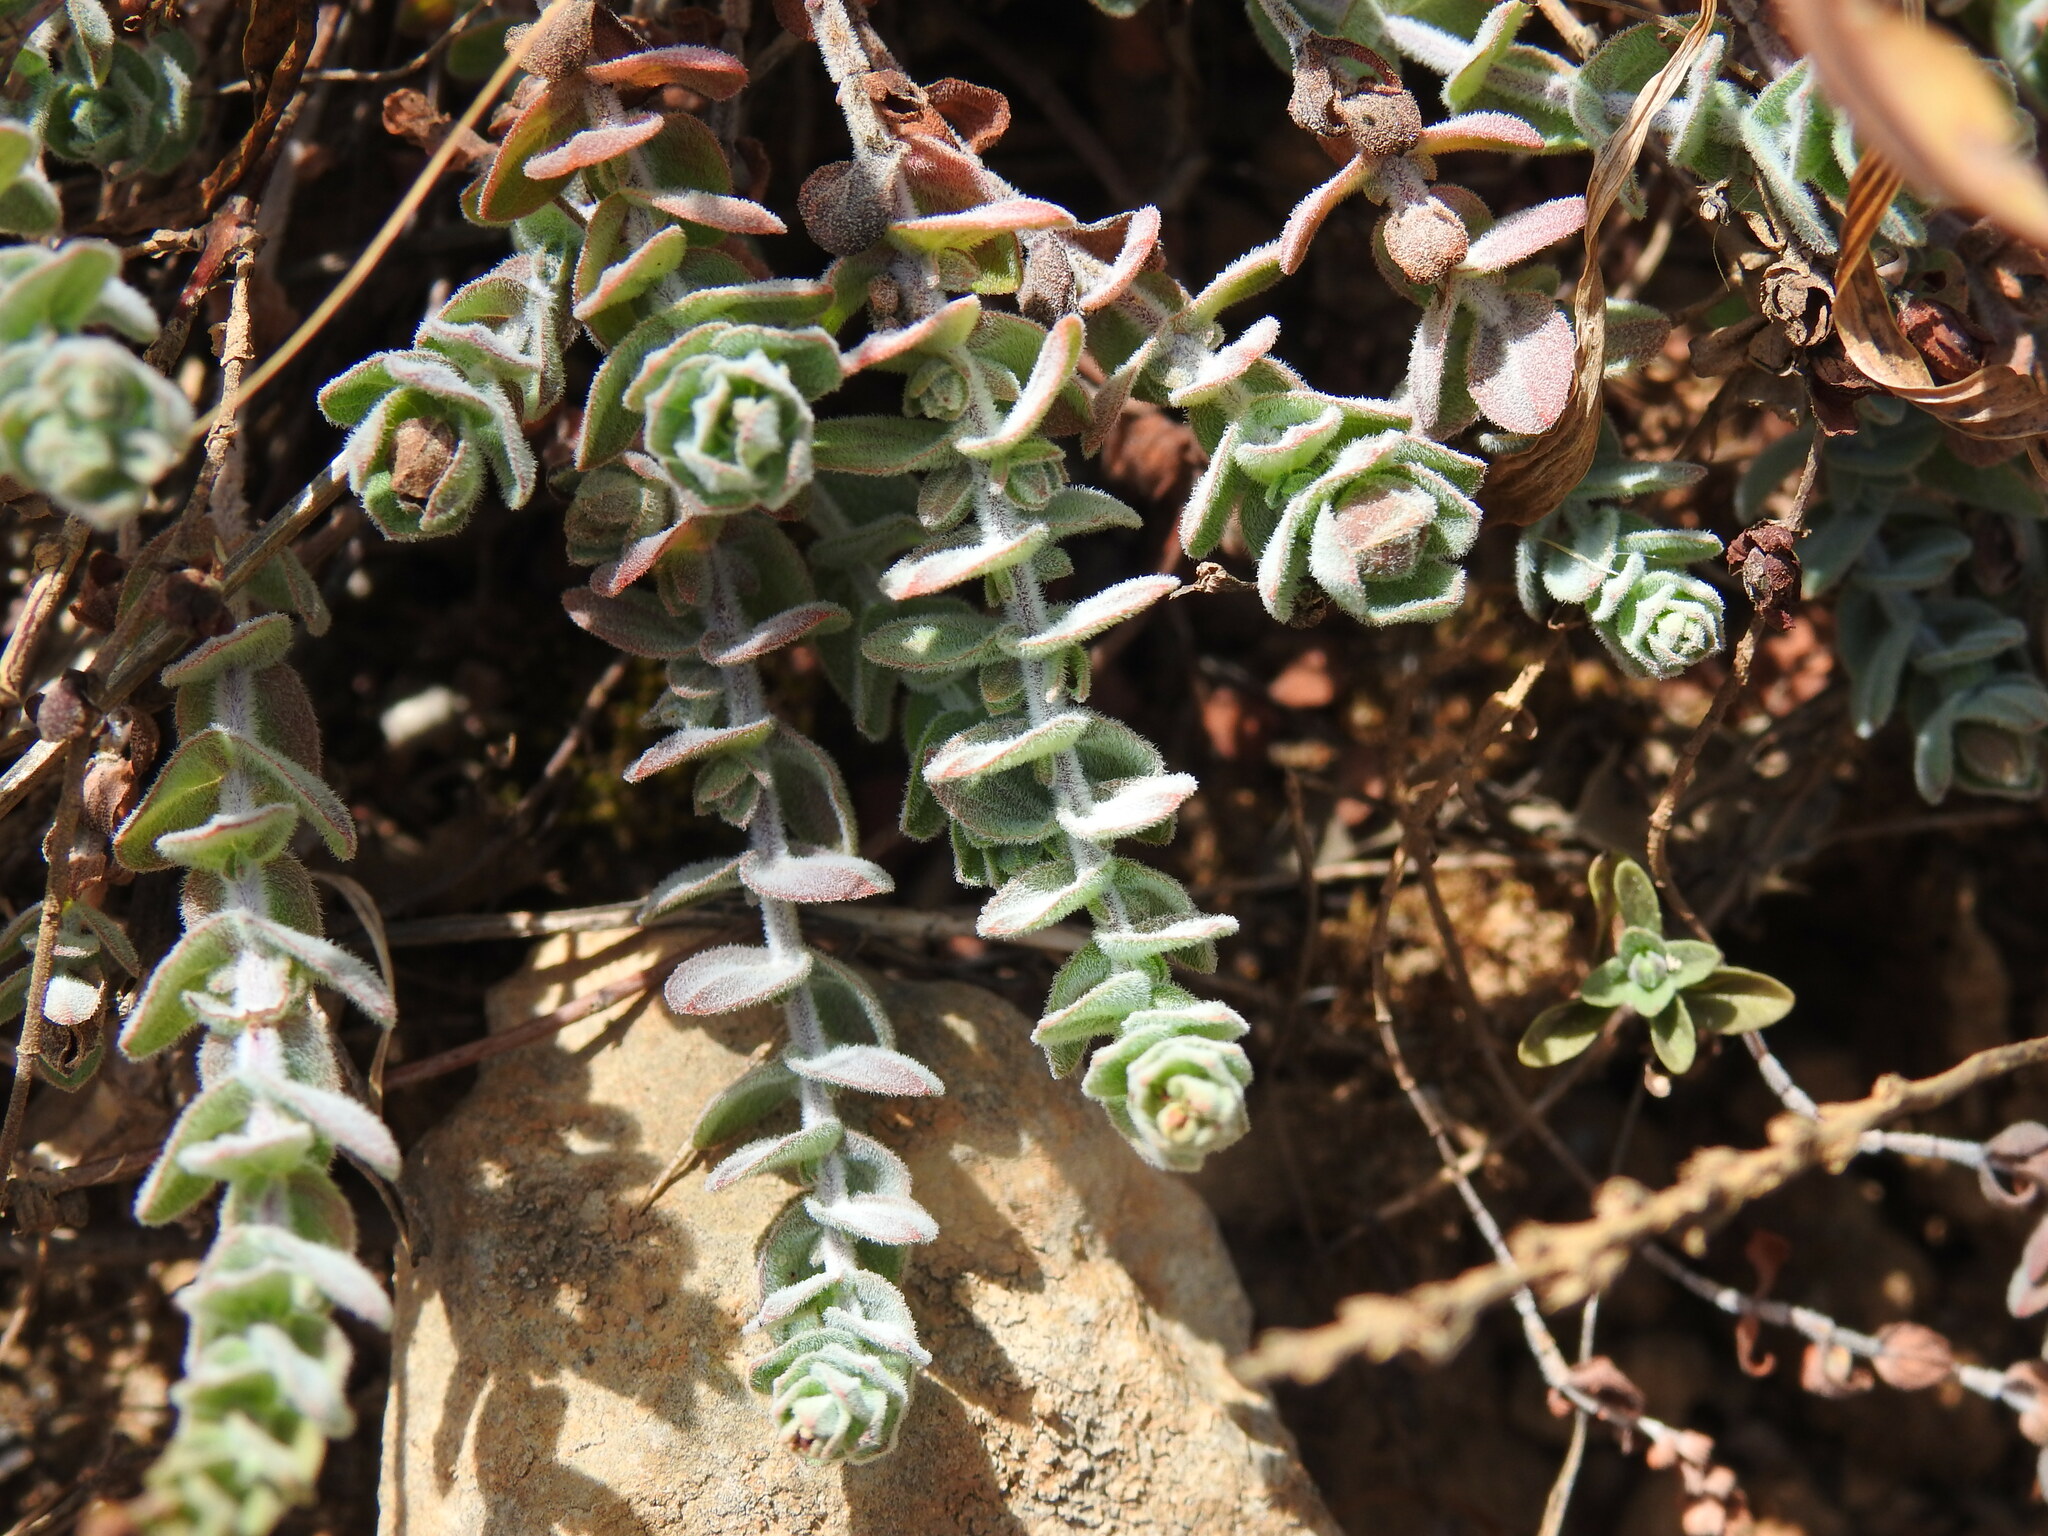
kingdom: Plantae
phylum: Tracheophyta
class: Magnoliopsida
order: Malpighiales
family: Hypericaceae
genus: Hypericum
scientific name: Hypericum tomentosum
